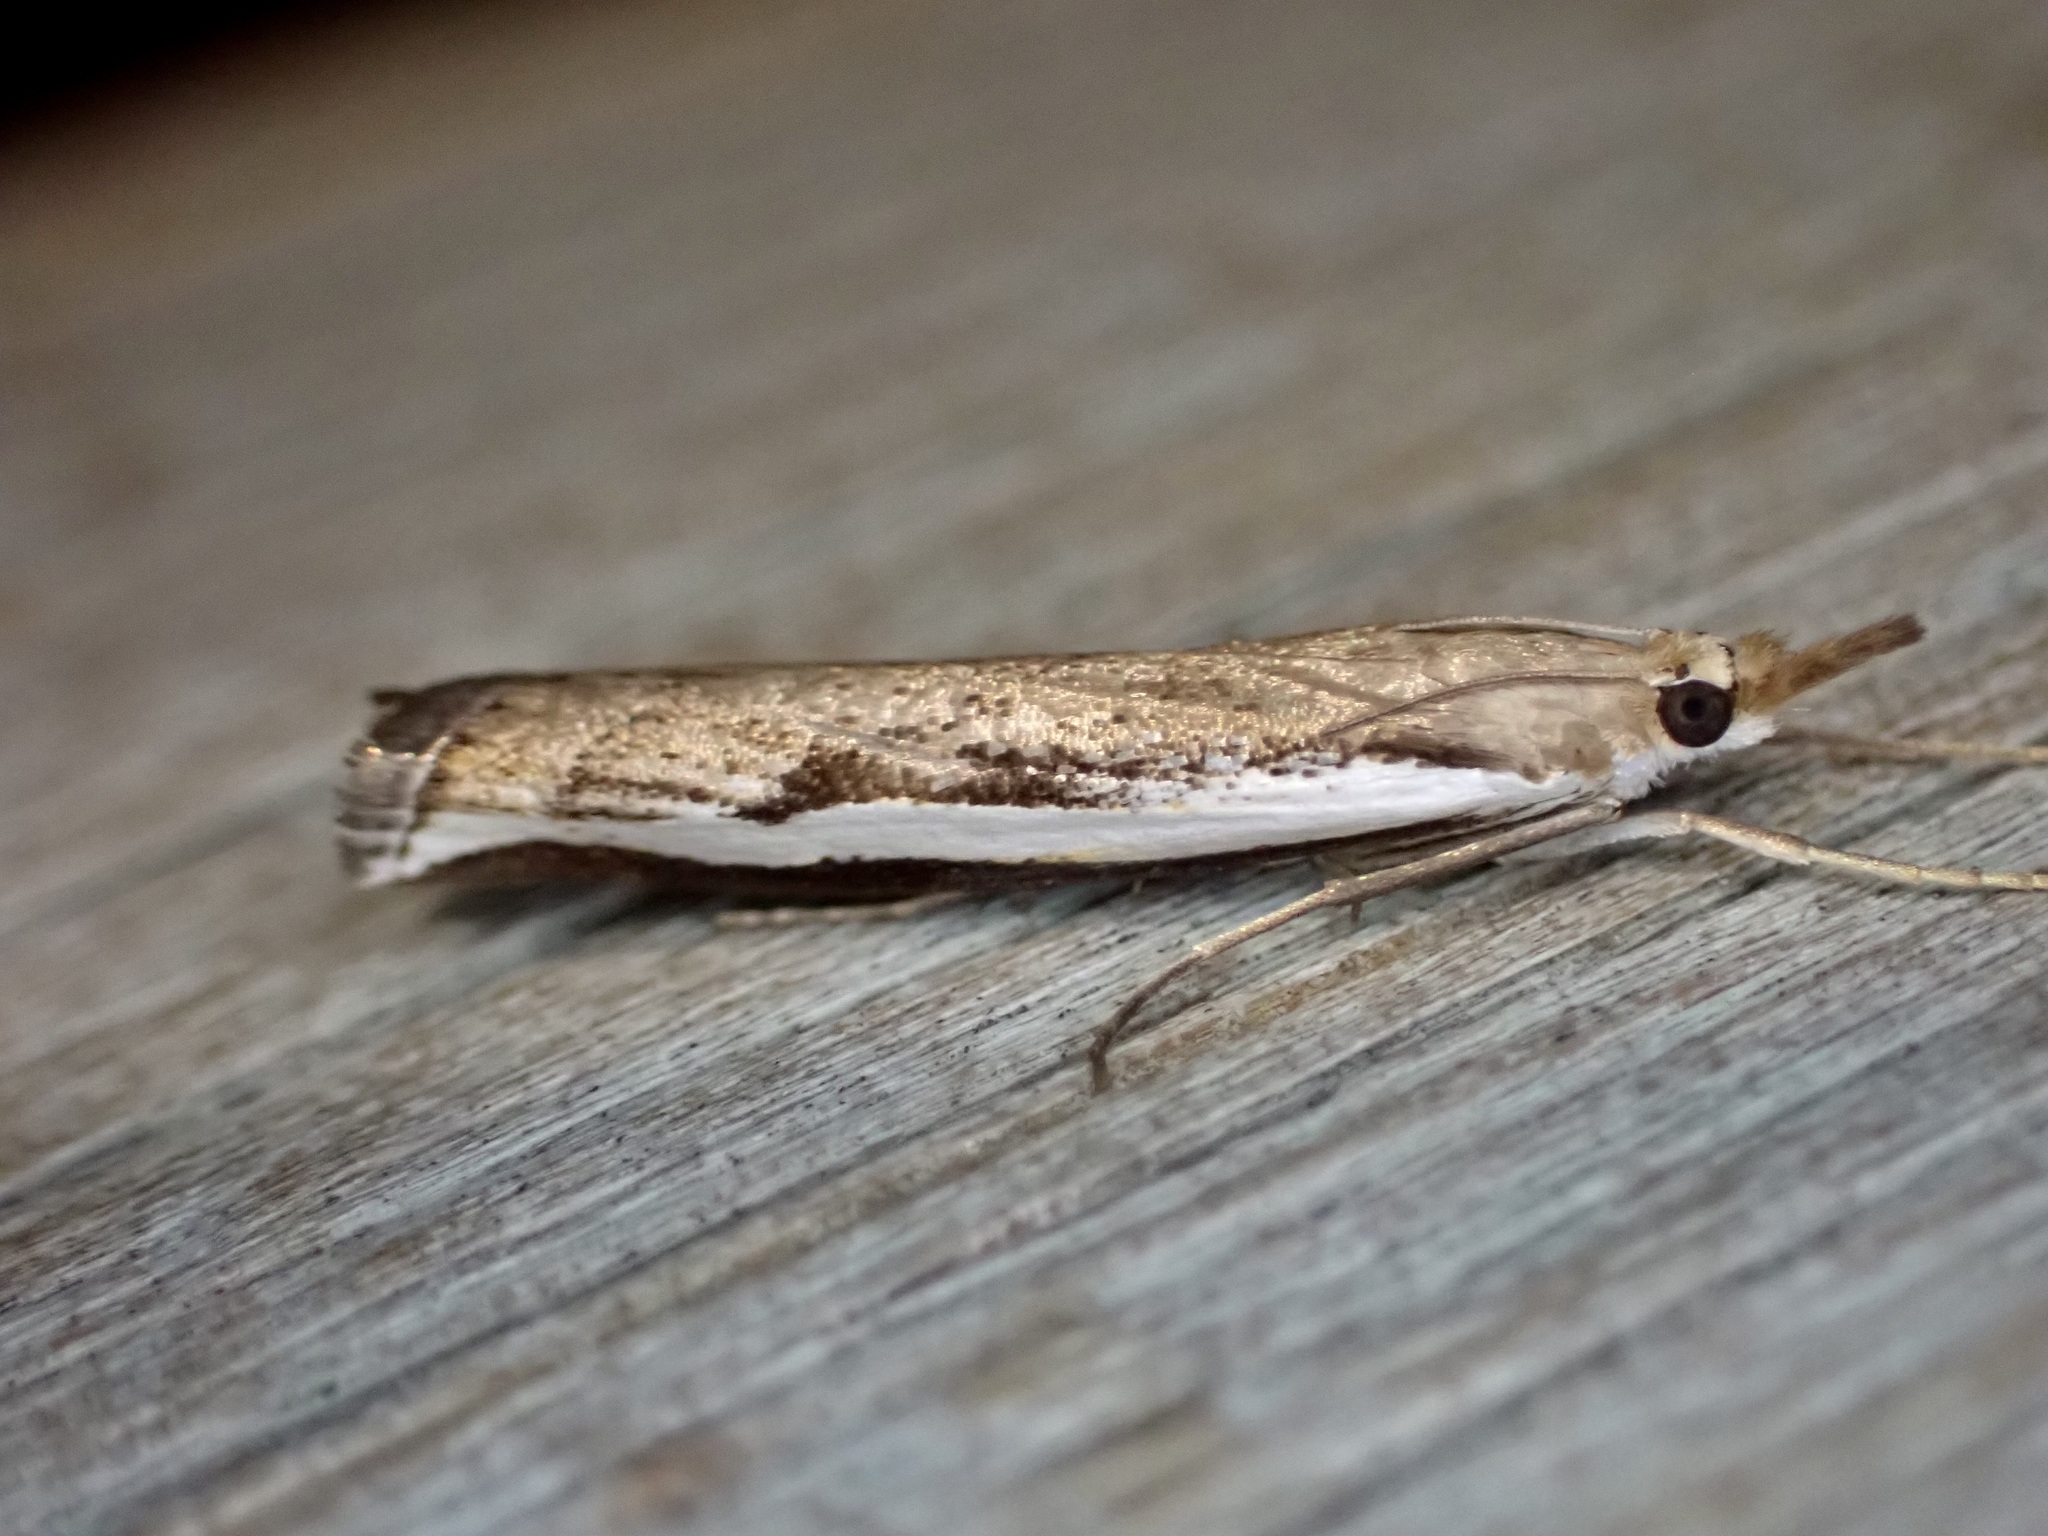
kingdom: Animalia
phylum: Arthropoda
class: Insecta
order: Lepidoptera
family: Crambidae
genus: Orocrambus
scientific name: Orocrambus flexuosellus
